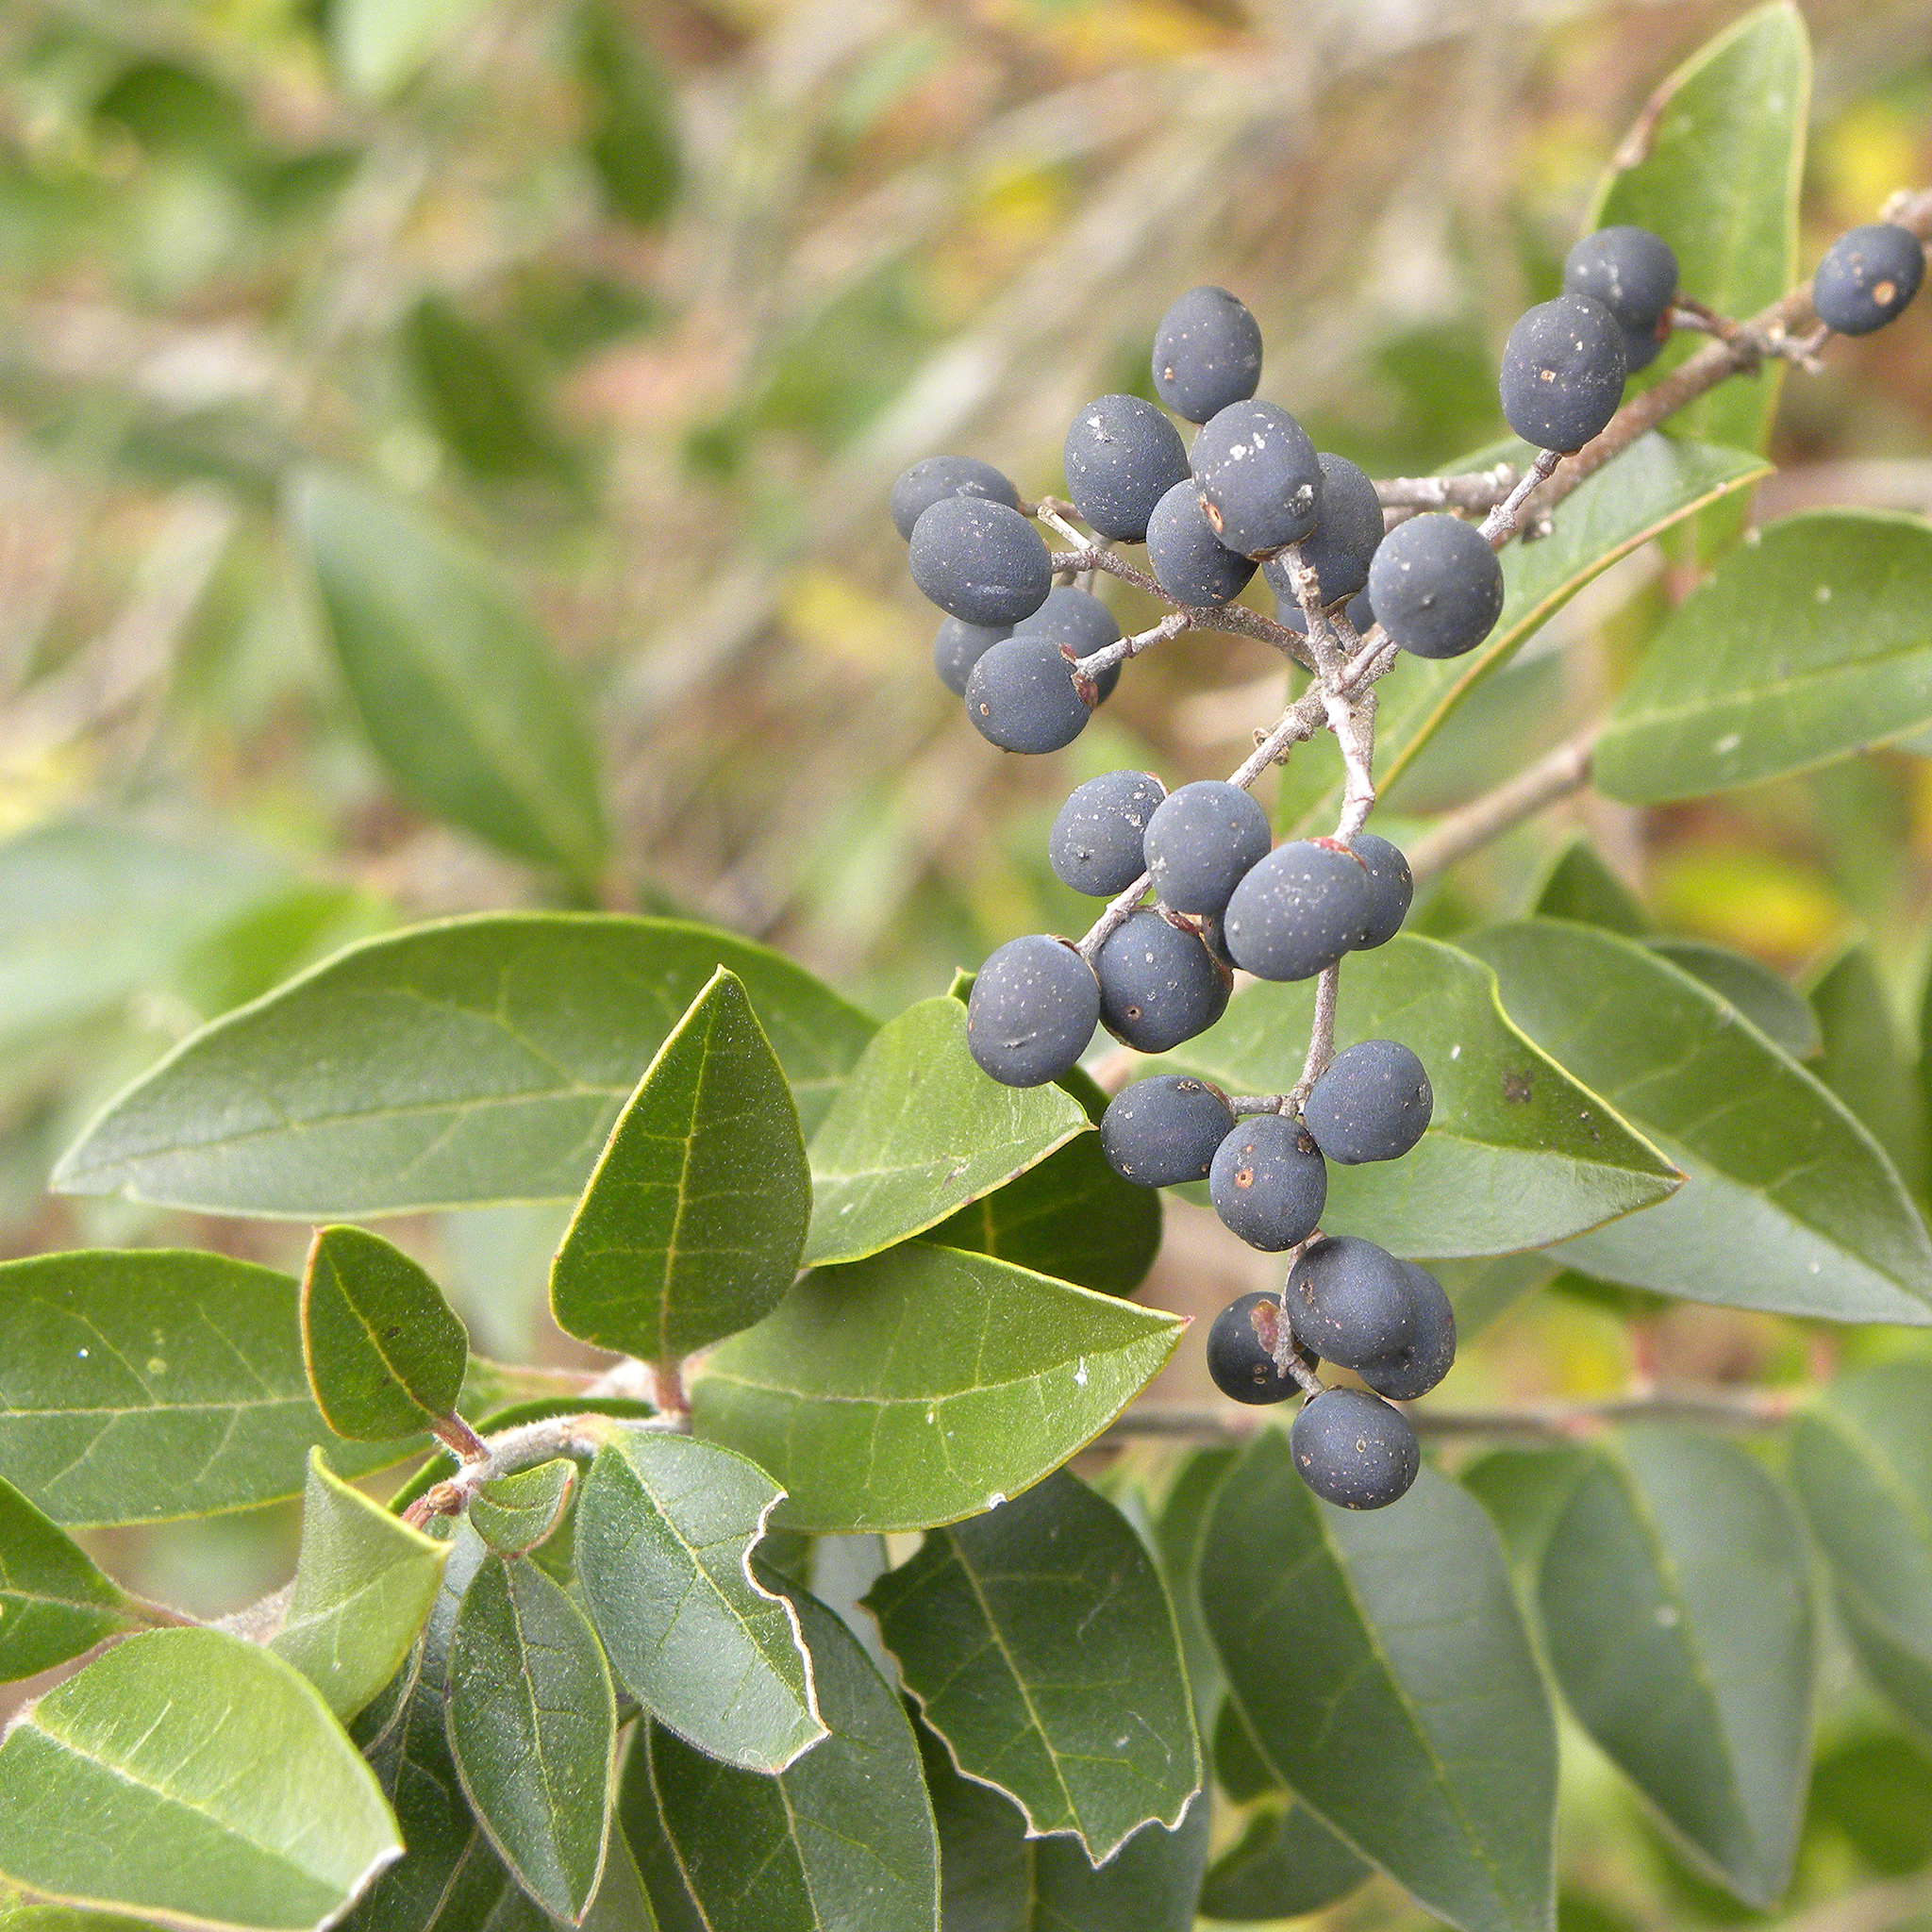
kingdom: Plantae
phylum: Tracheophyta
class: Magnoliopsida
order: Lamiales
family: Oleaceae
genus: Ligustrum
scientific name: Ligustrum sinense
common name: Chinese privet
